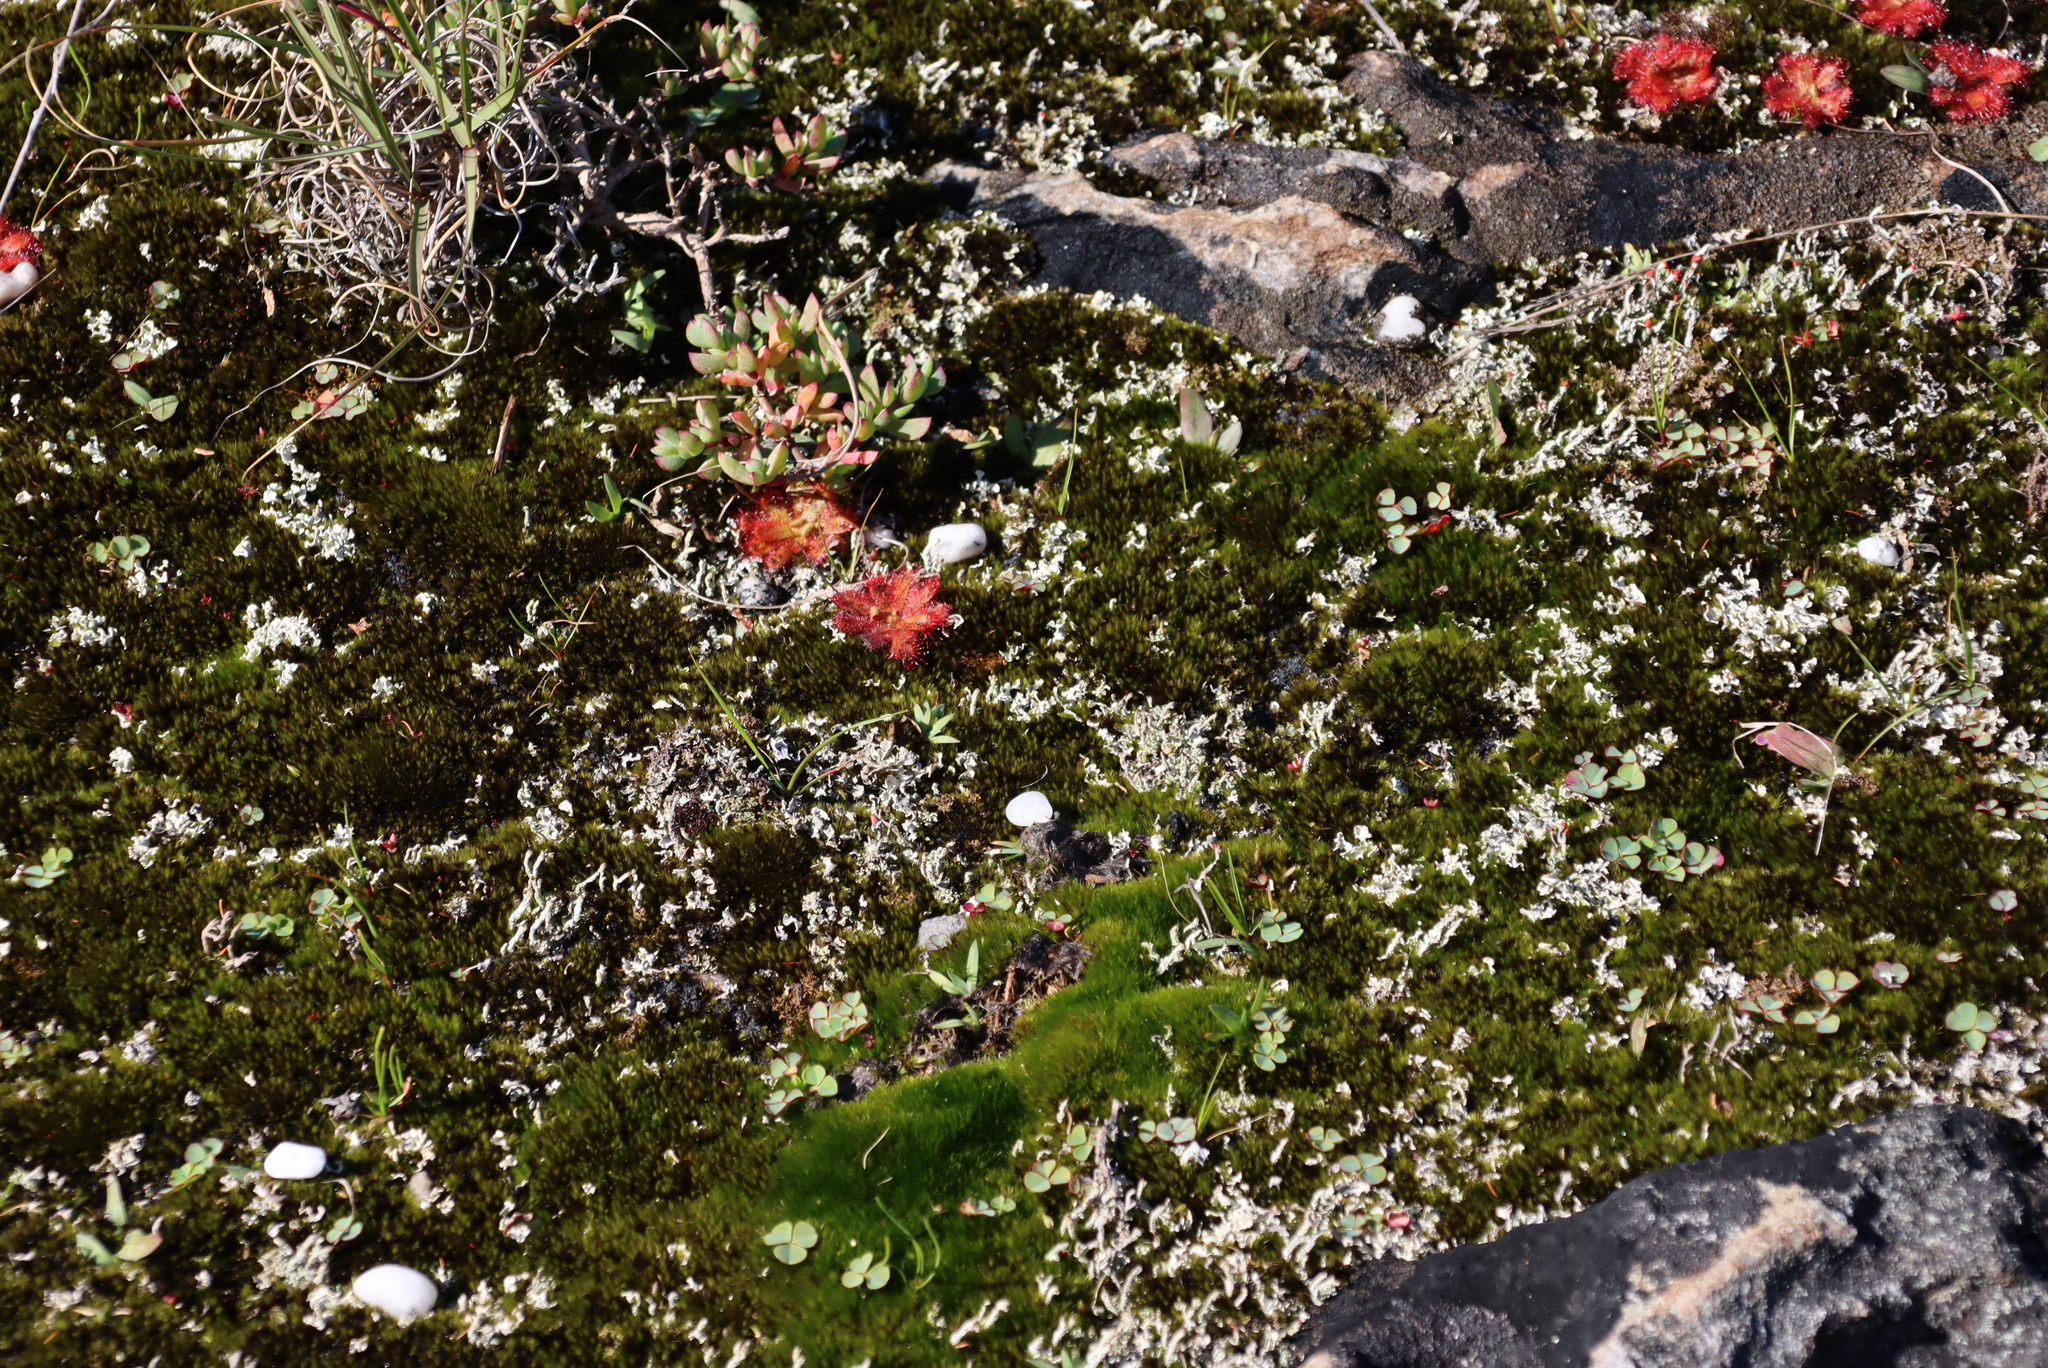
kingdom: Plantae
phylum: Tracheophyta
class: Magnoliopsida
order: Oxalidales
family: Oxalidaceae
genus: Oxalis
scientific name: Oxalis commutata
